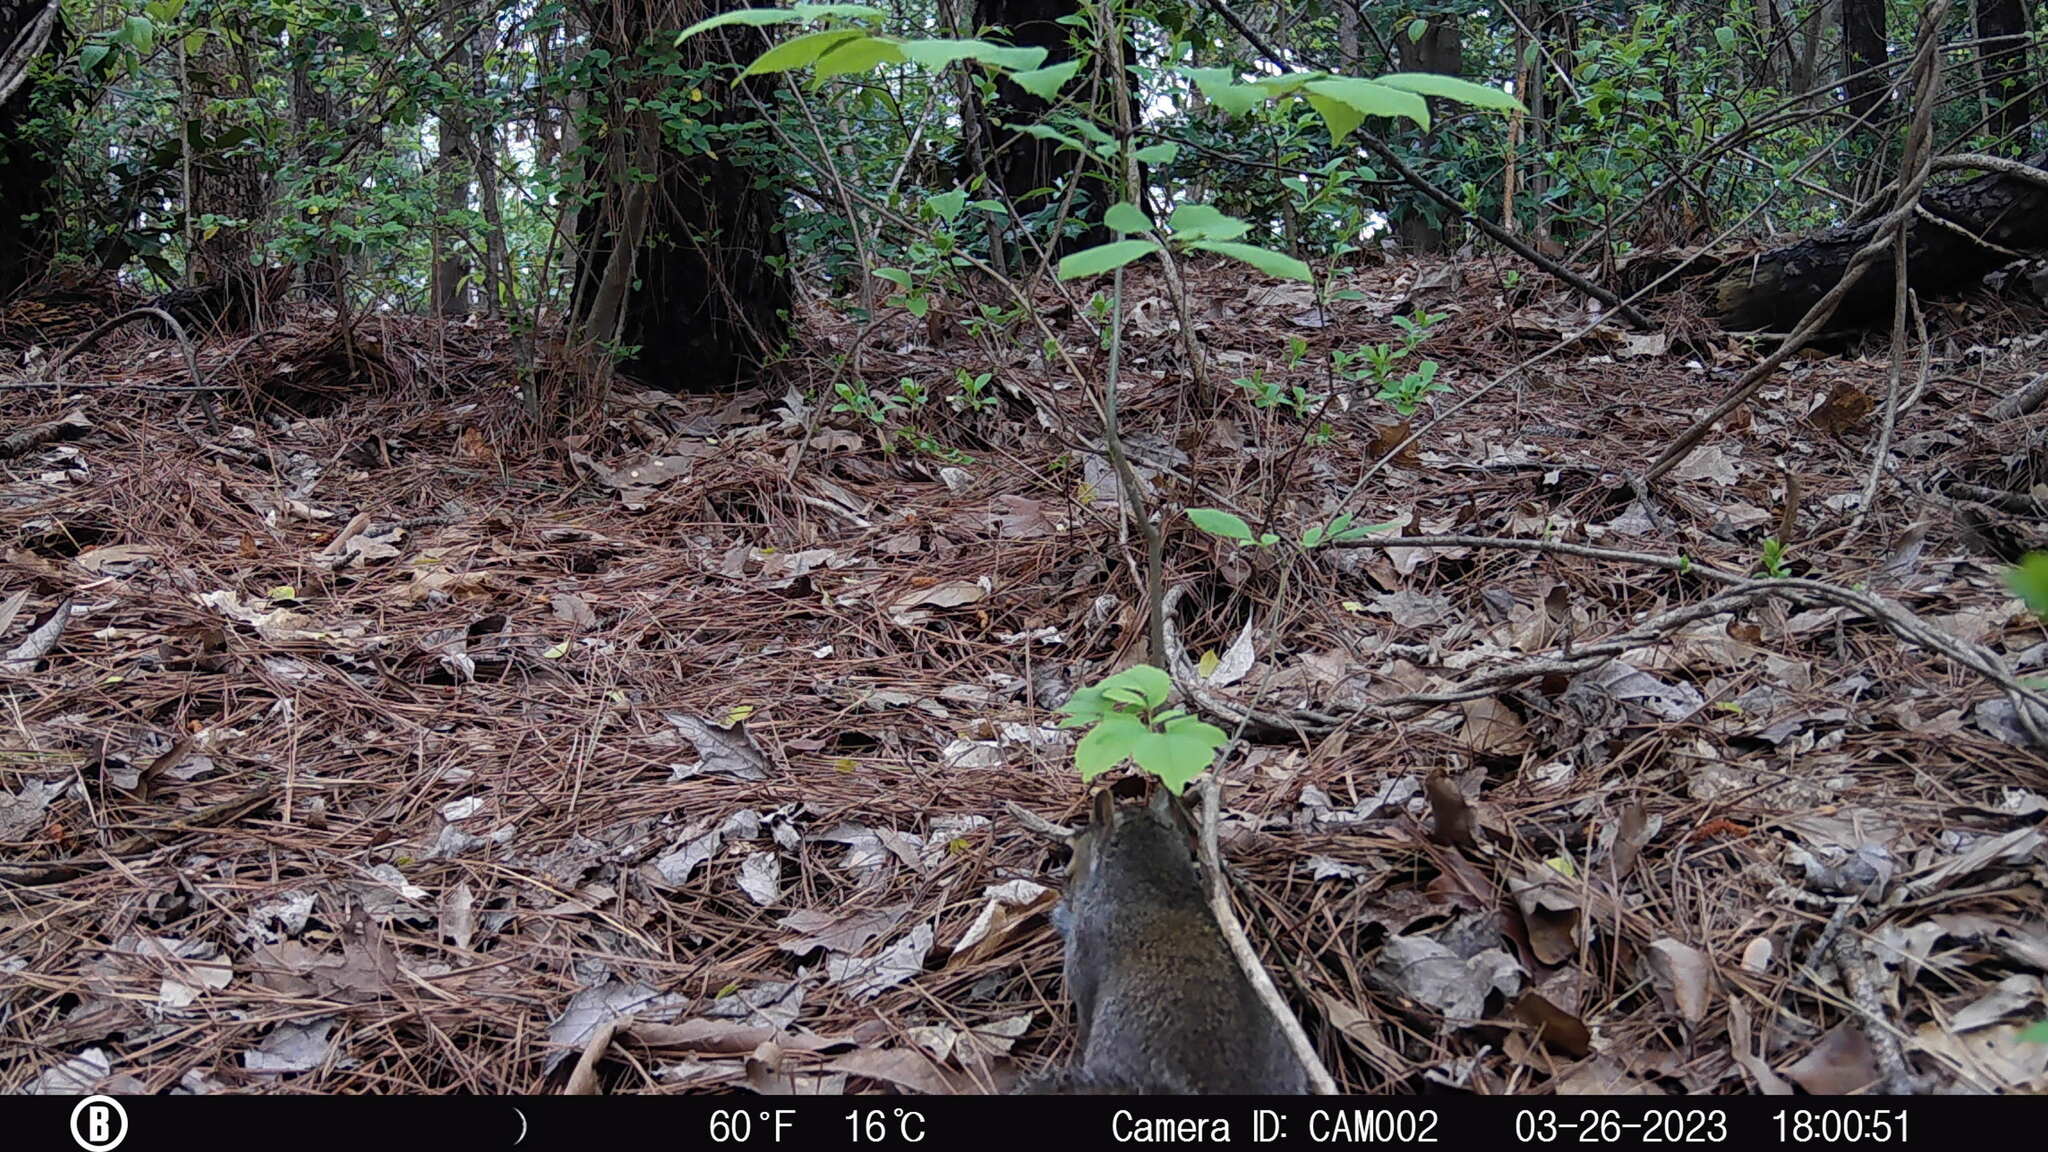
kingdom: Animalia
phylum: Chordata
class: Mammalia
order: Rodentia
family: Sciuridae
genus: Sciurus
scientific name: Sciurus carolinensis
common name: Eastern gray squirrel
